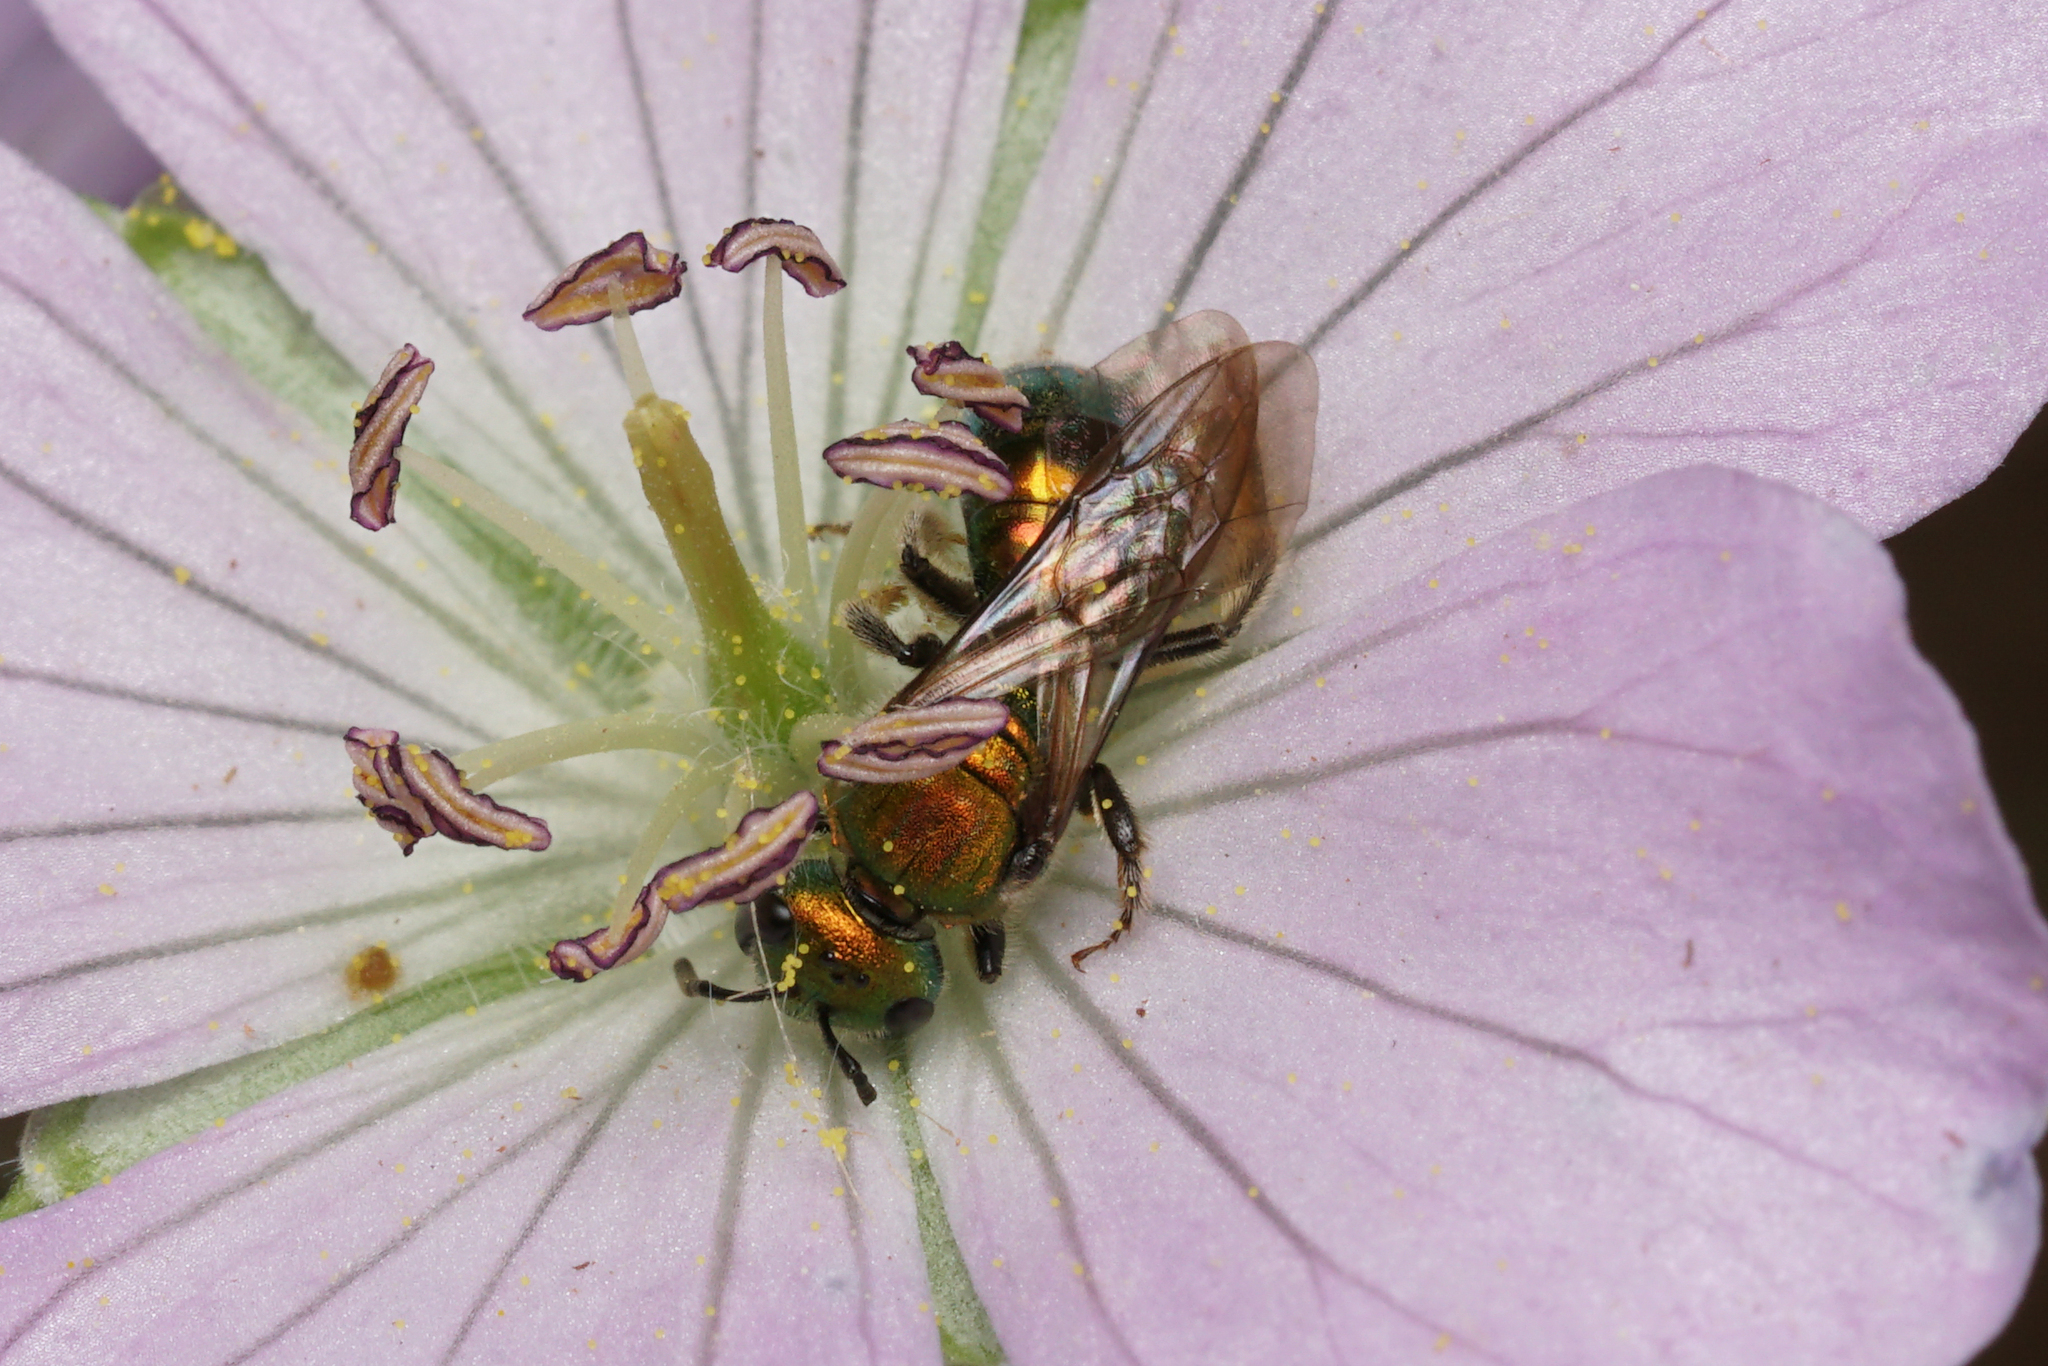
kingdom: Animalia
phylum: Arthropoda
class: Insecta
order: Hymenoptera
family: Halictidae
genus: Augochlora
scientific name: Augochlora pura
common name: Pure green sweat bee
